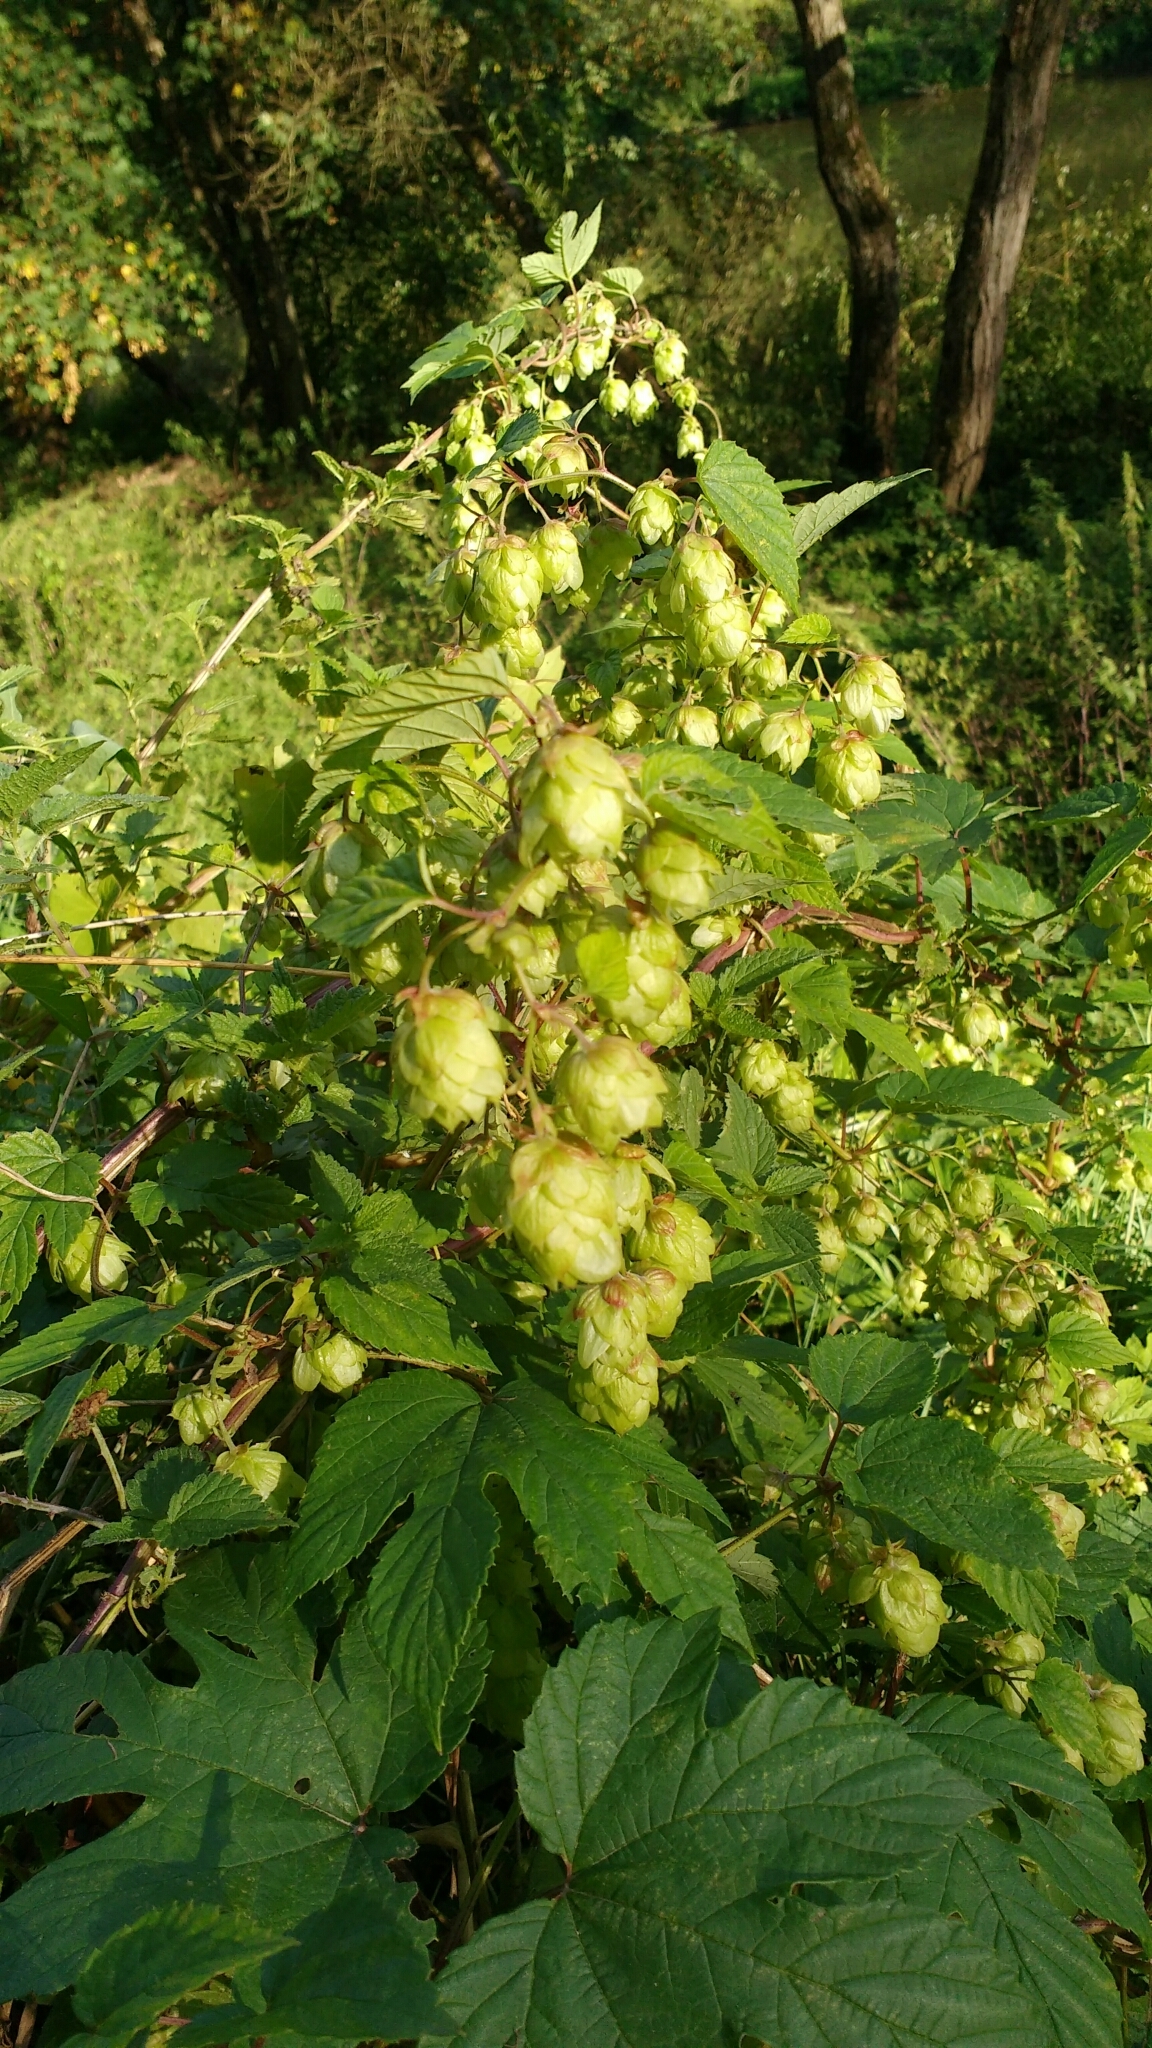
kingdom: Plantae
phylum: Tracheophyta
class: Magnoliopsida
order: Rosales
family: Cannabaceae
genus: Humulus
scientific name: Humulus lupulus
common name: Hop
